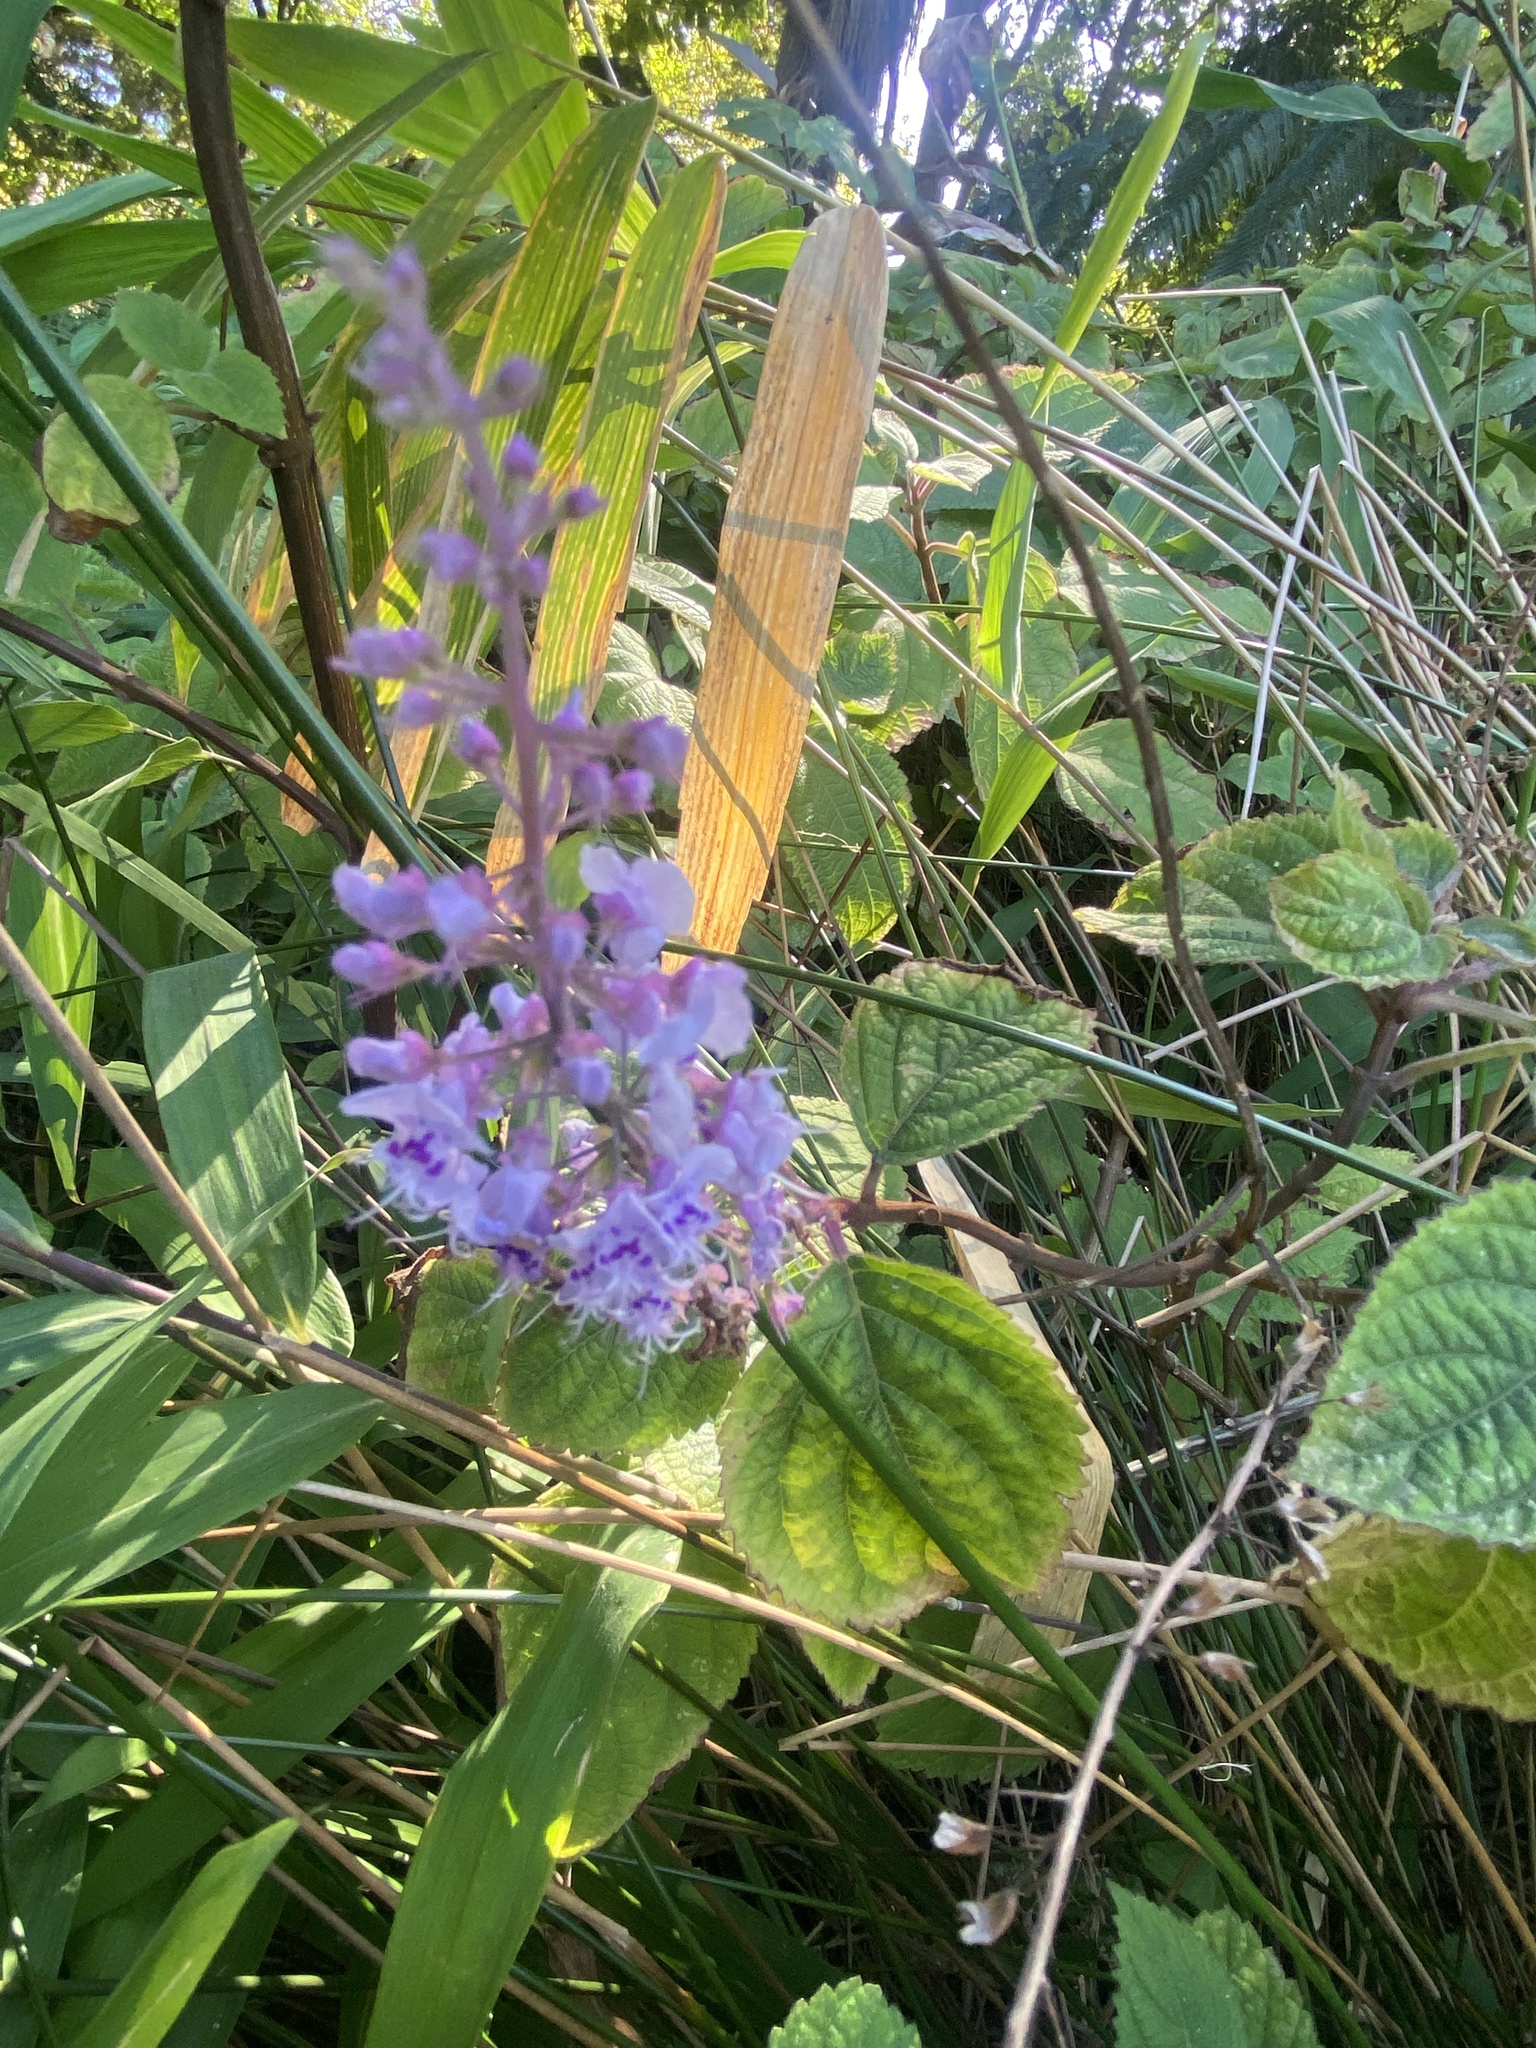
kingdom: Plantae
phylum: Tracheophyta
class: Magnoliopsida
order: Lamiales
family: Lamiaceae
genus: Plectranthus
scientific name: Plectranthus fruticosus
